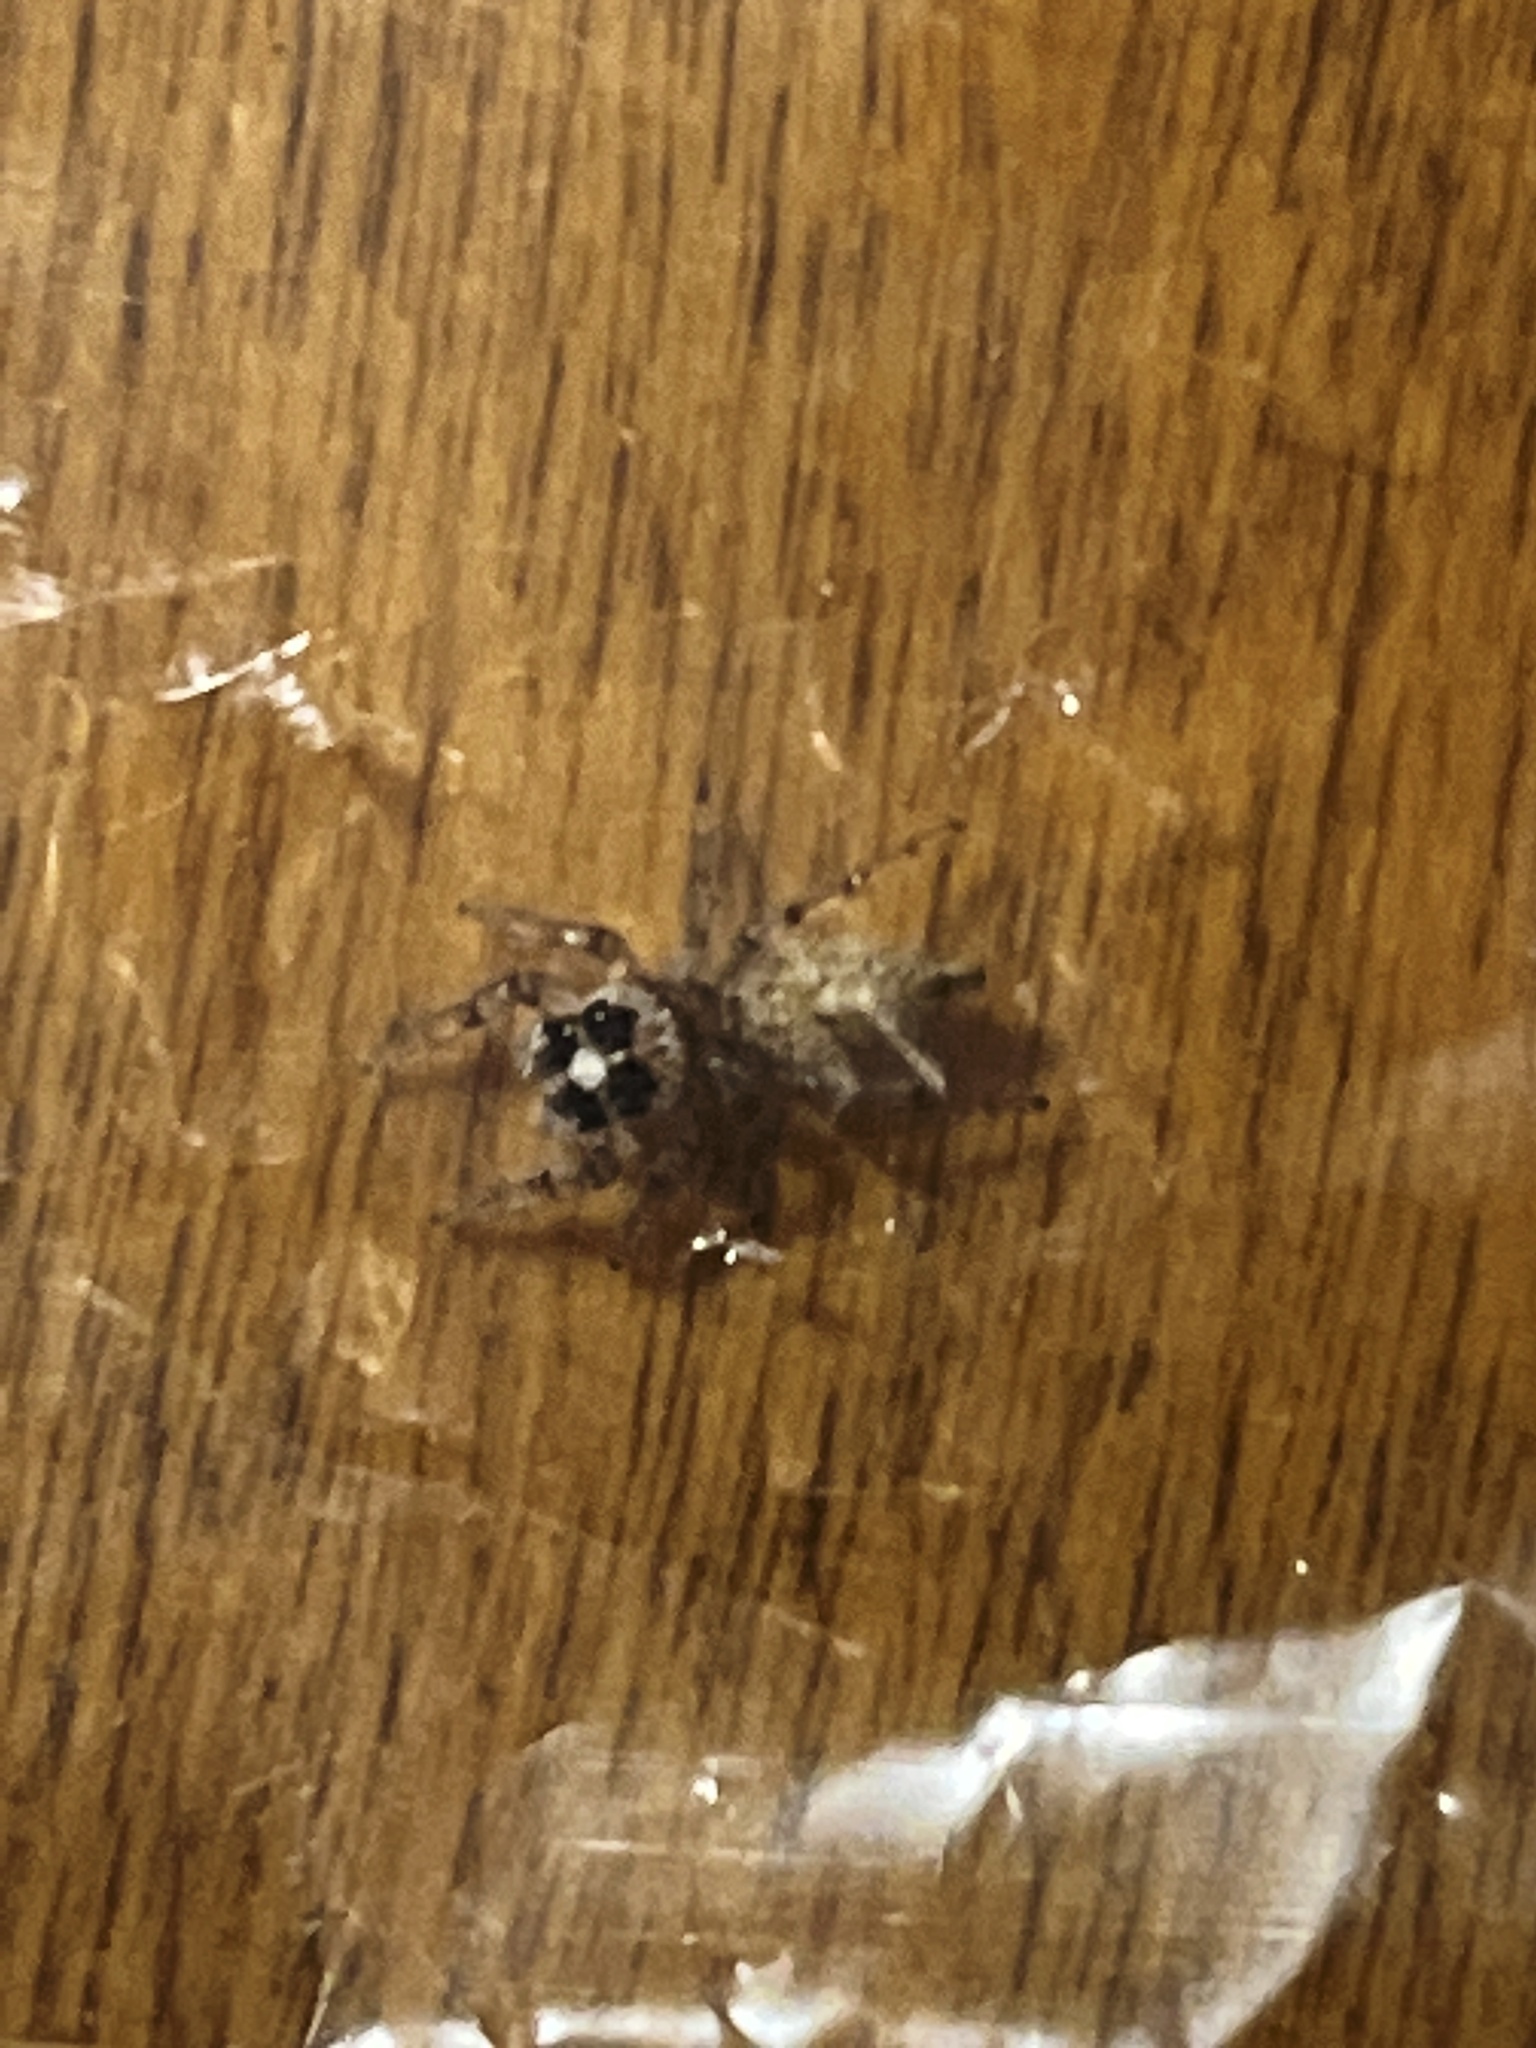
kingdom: Animalia
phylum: Arthropoda
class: Arachnida
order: Araneae
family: Salticidae
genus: Colonus
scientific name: Colonus hesperus
